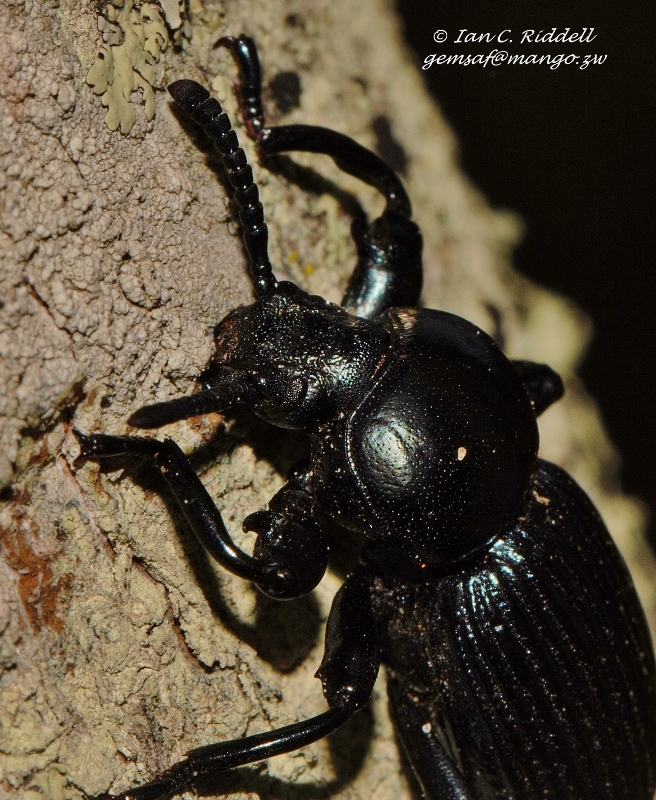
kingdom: Animalia
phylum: Arthropoda
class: Insecta
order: Coleoptera
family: Tenebrionidae
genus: Catamerus
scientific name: Catamerus
